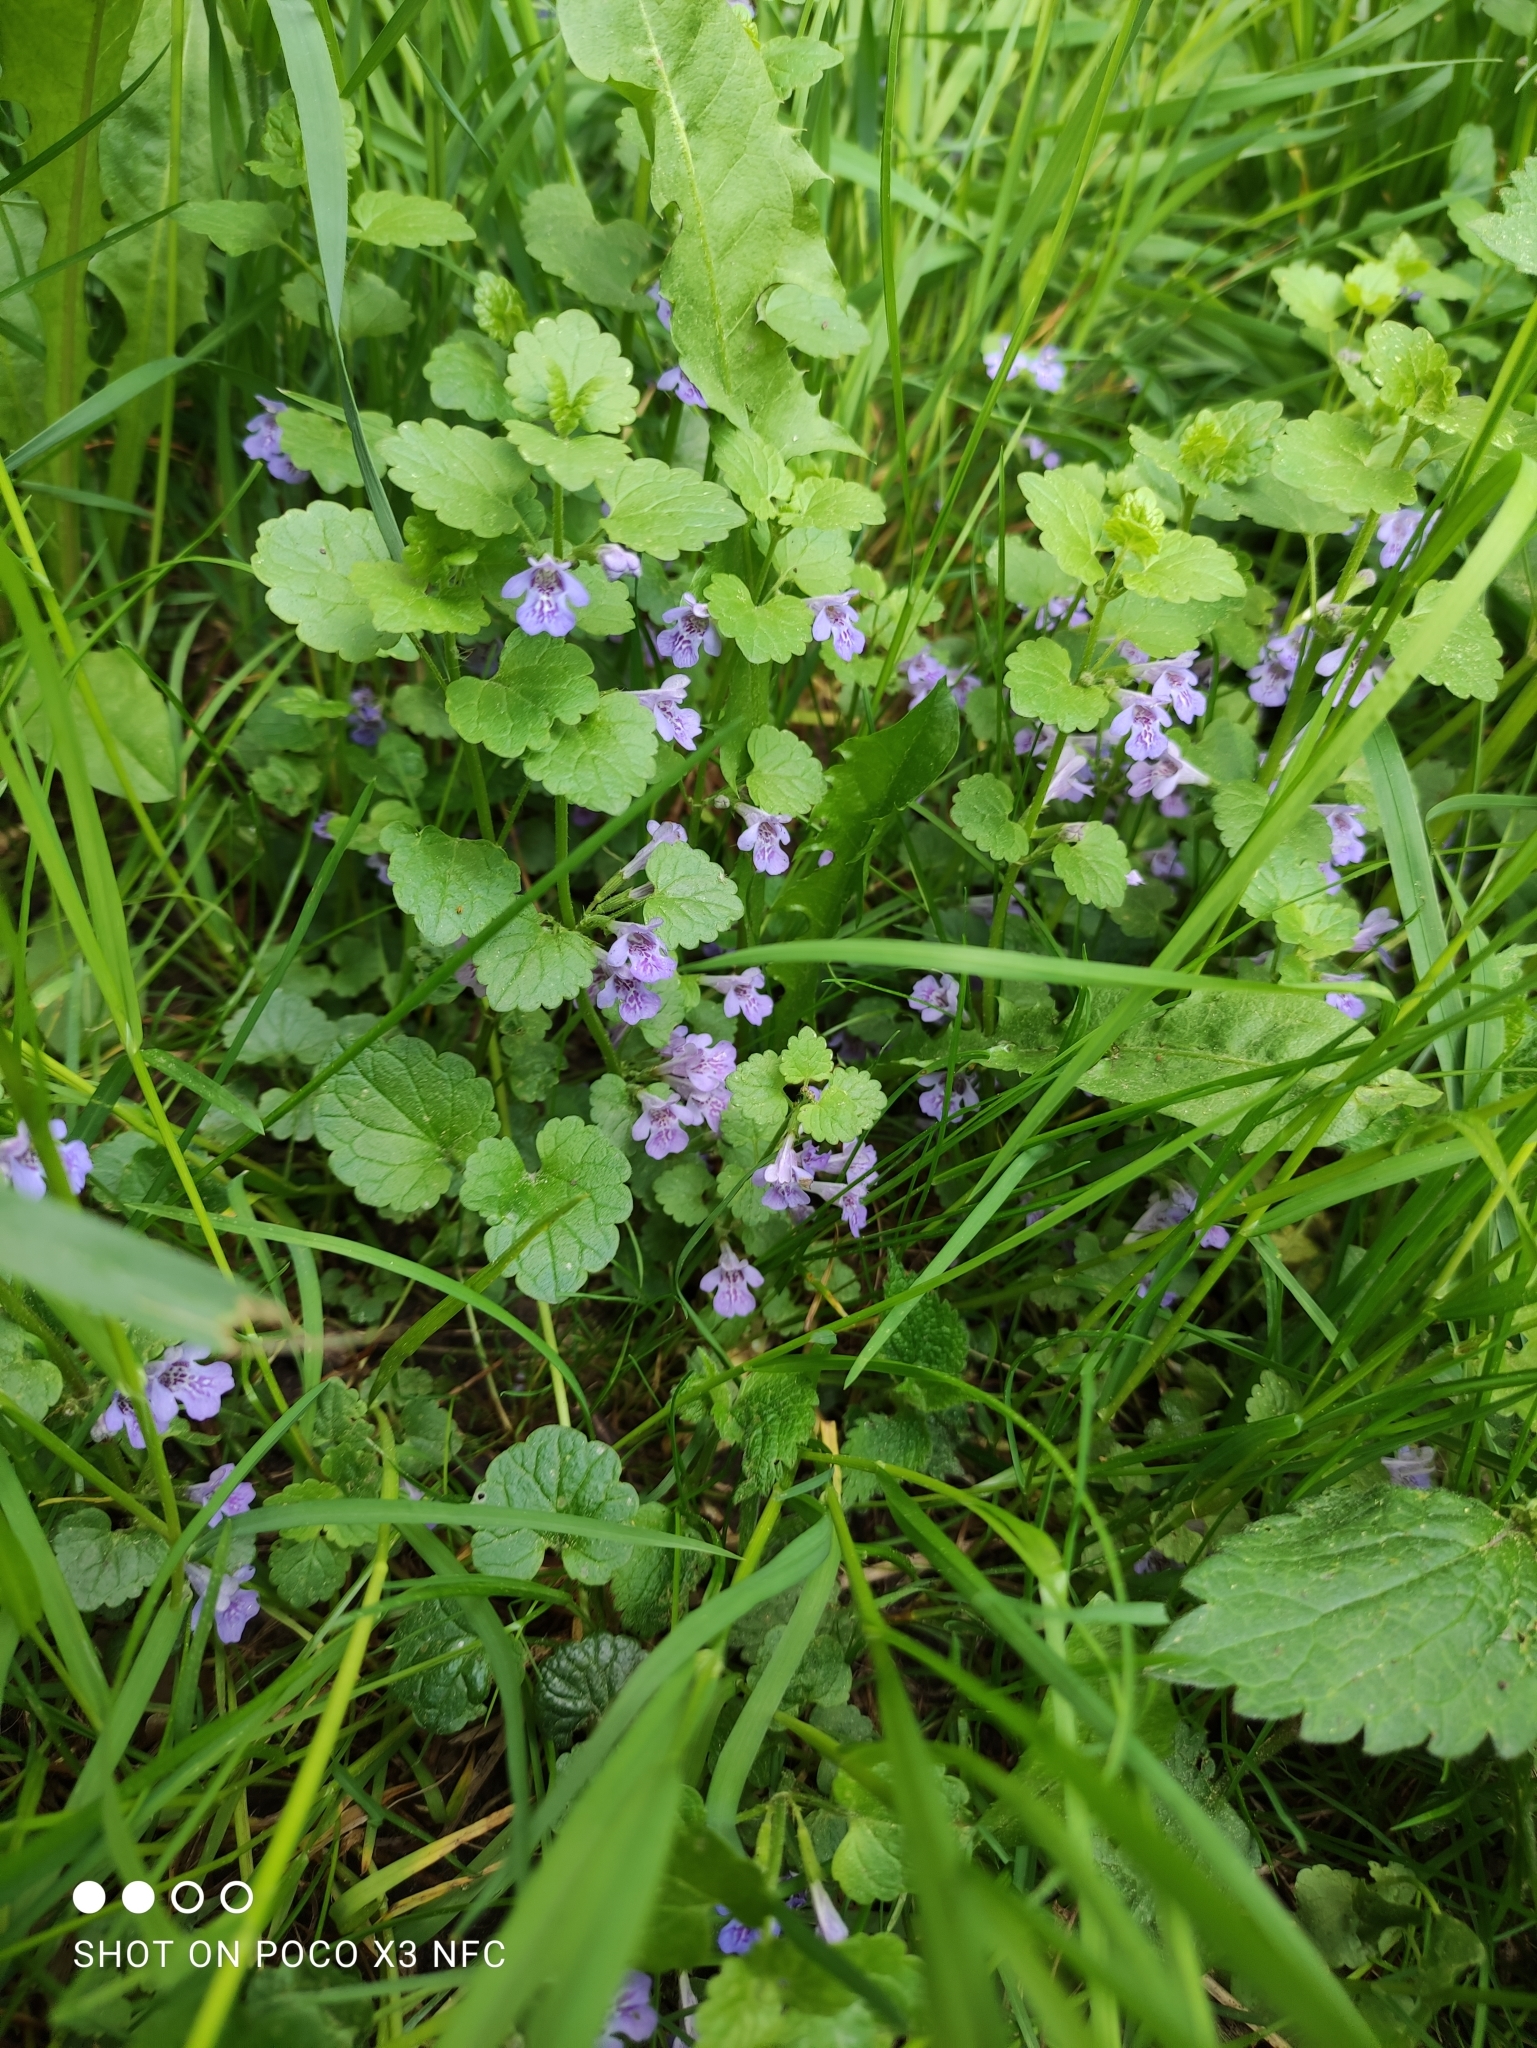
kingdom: Plantae
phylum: Tracheophyta
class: Magnoliopsida
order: Lamiales
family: Lamiaceae
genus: Glechoma
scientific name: Glechoma hederacea
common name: Ground ivy
